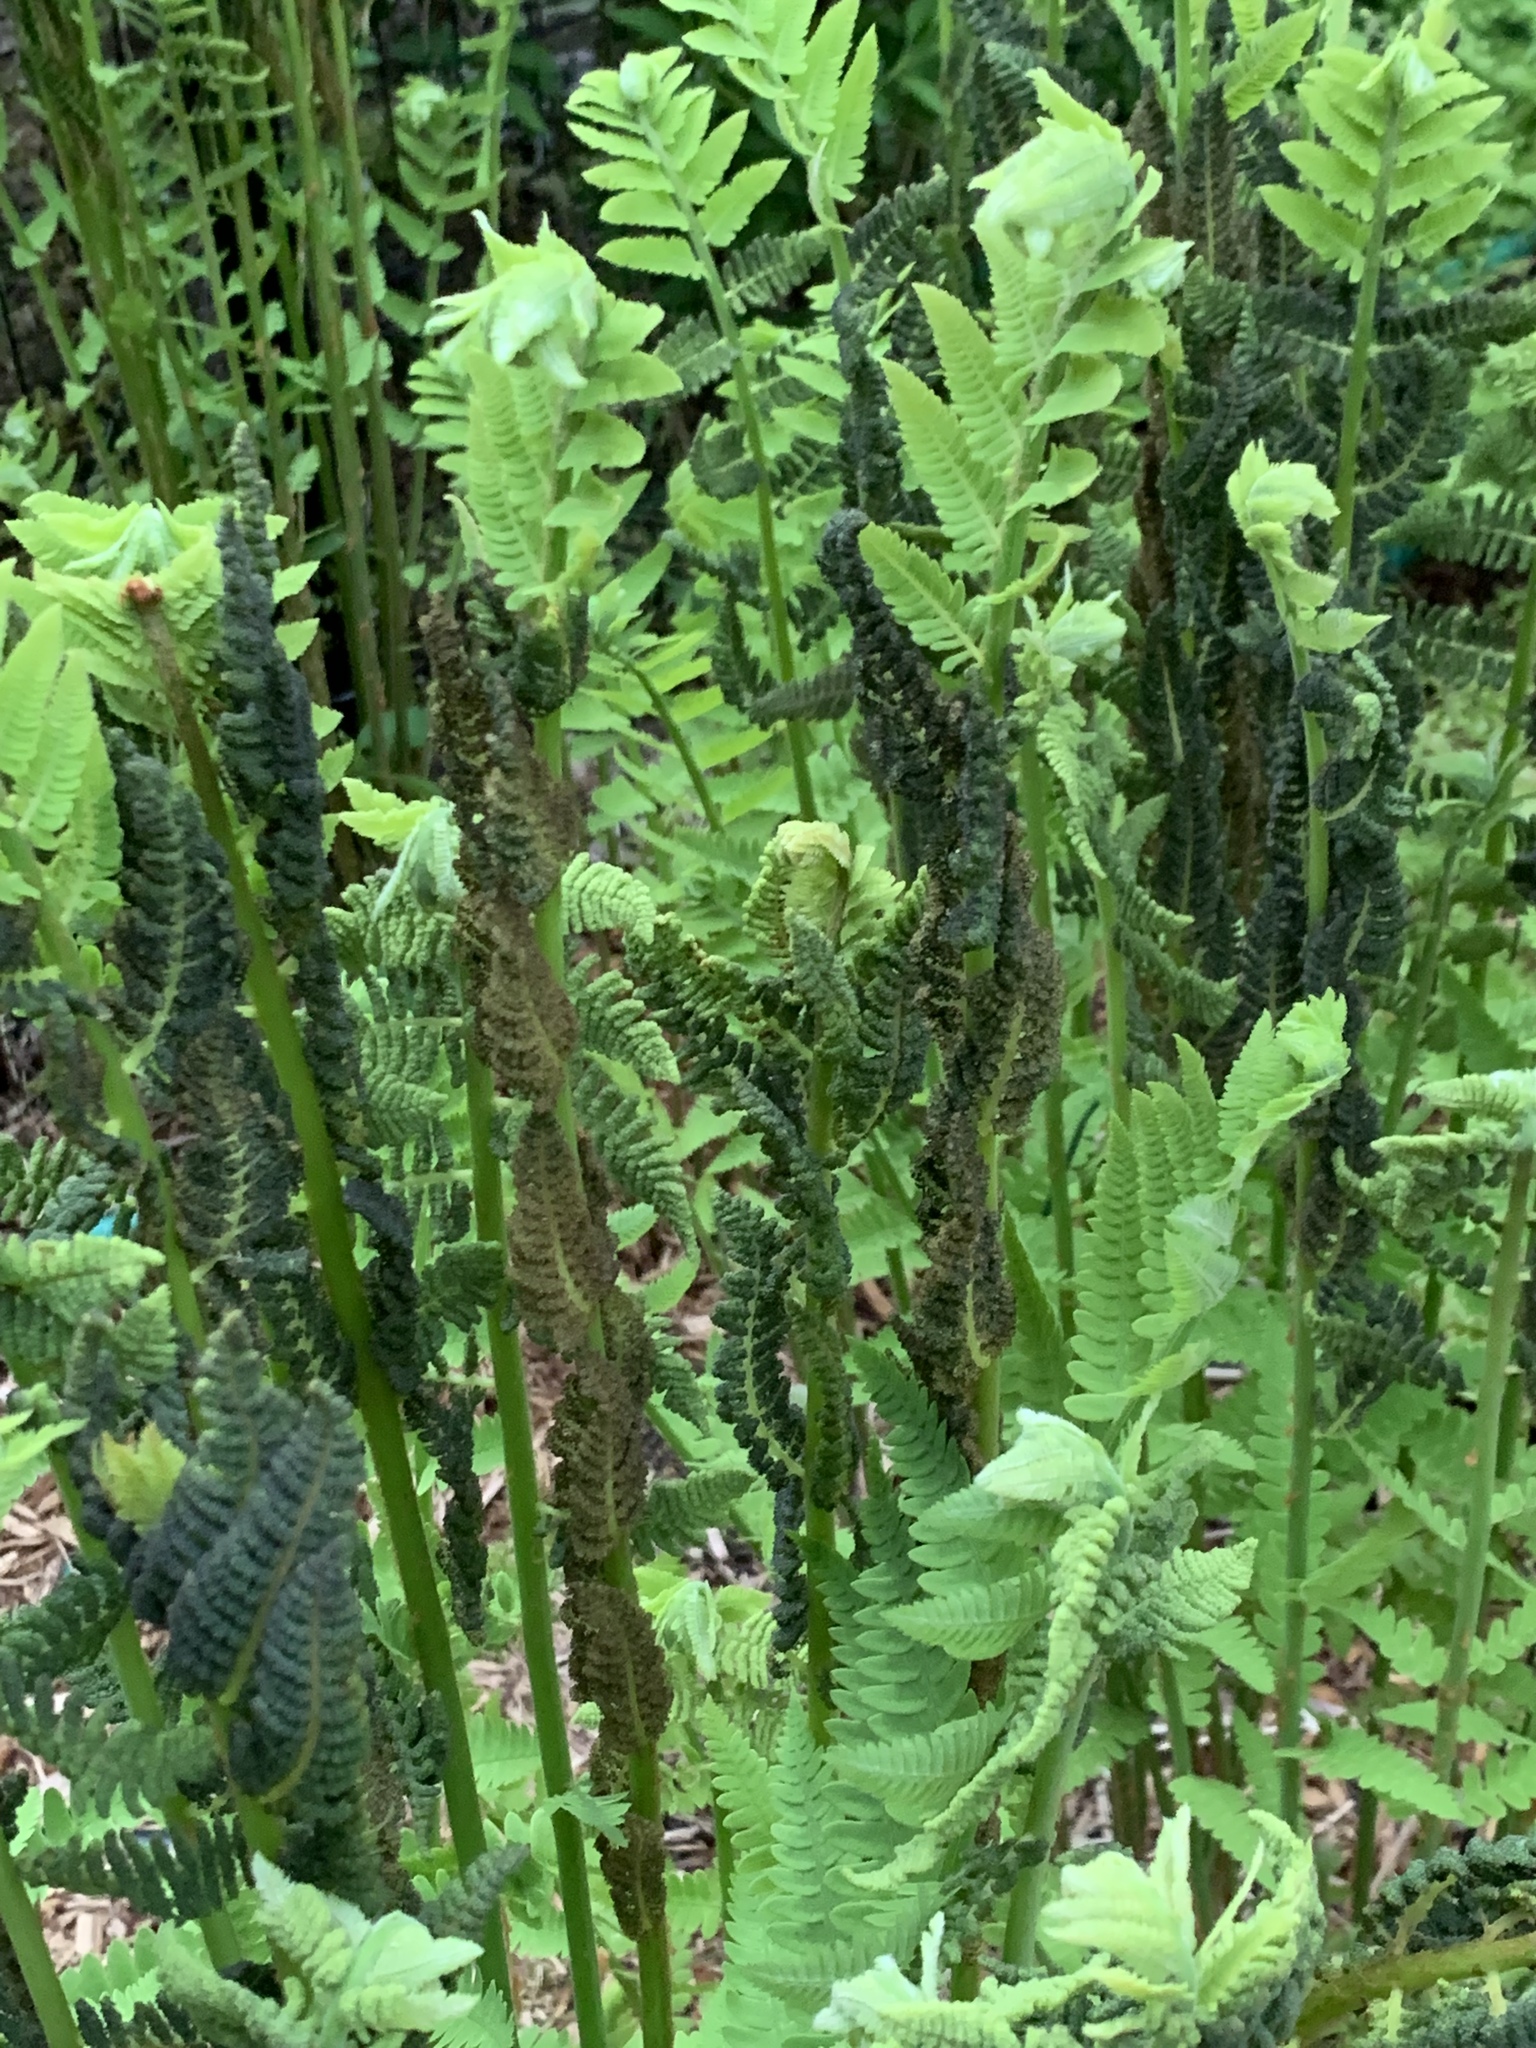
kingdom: Plantae
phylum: Tracheophyta
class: Polypodiopsida
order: Osmundales
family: Osmundaceae
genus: Claytosmunda
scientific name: Claytosmunda claytoniana
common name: Clayton's fern
